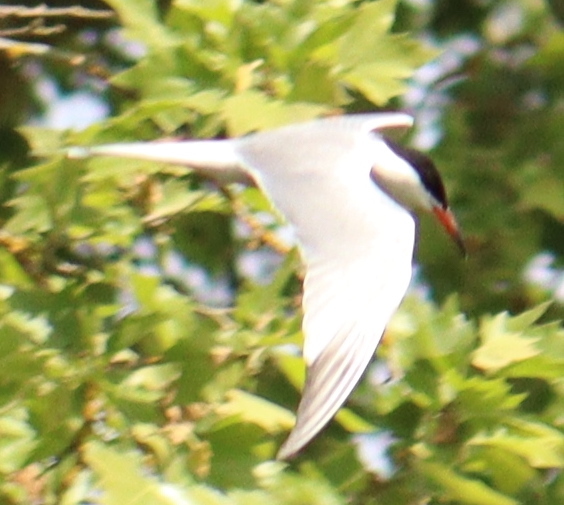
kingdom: Animalia
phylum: Chordata
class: Aves
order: Charadriiformes
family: Laridae
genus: Sterna
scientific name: Sterna hirundo
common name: Common tern
